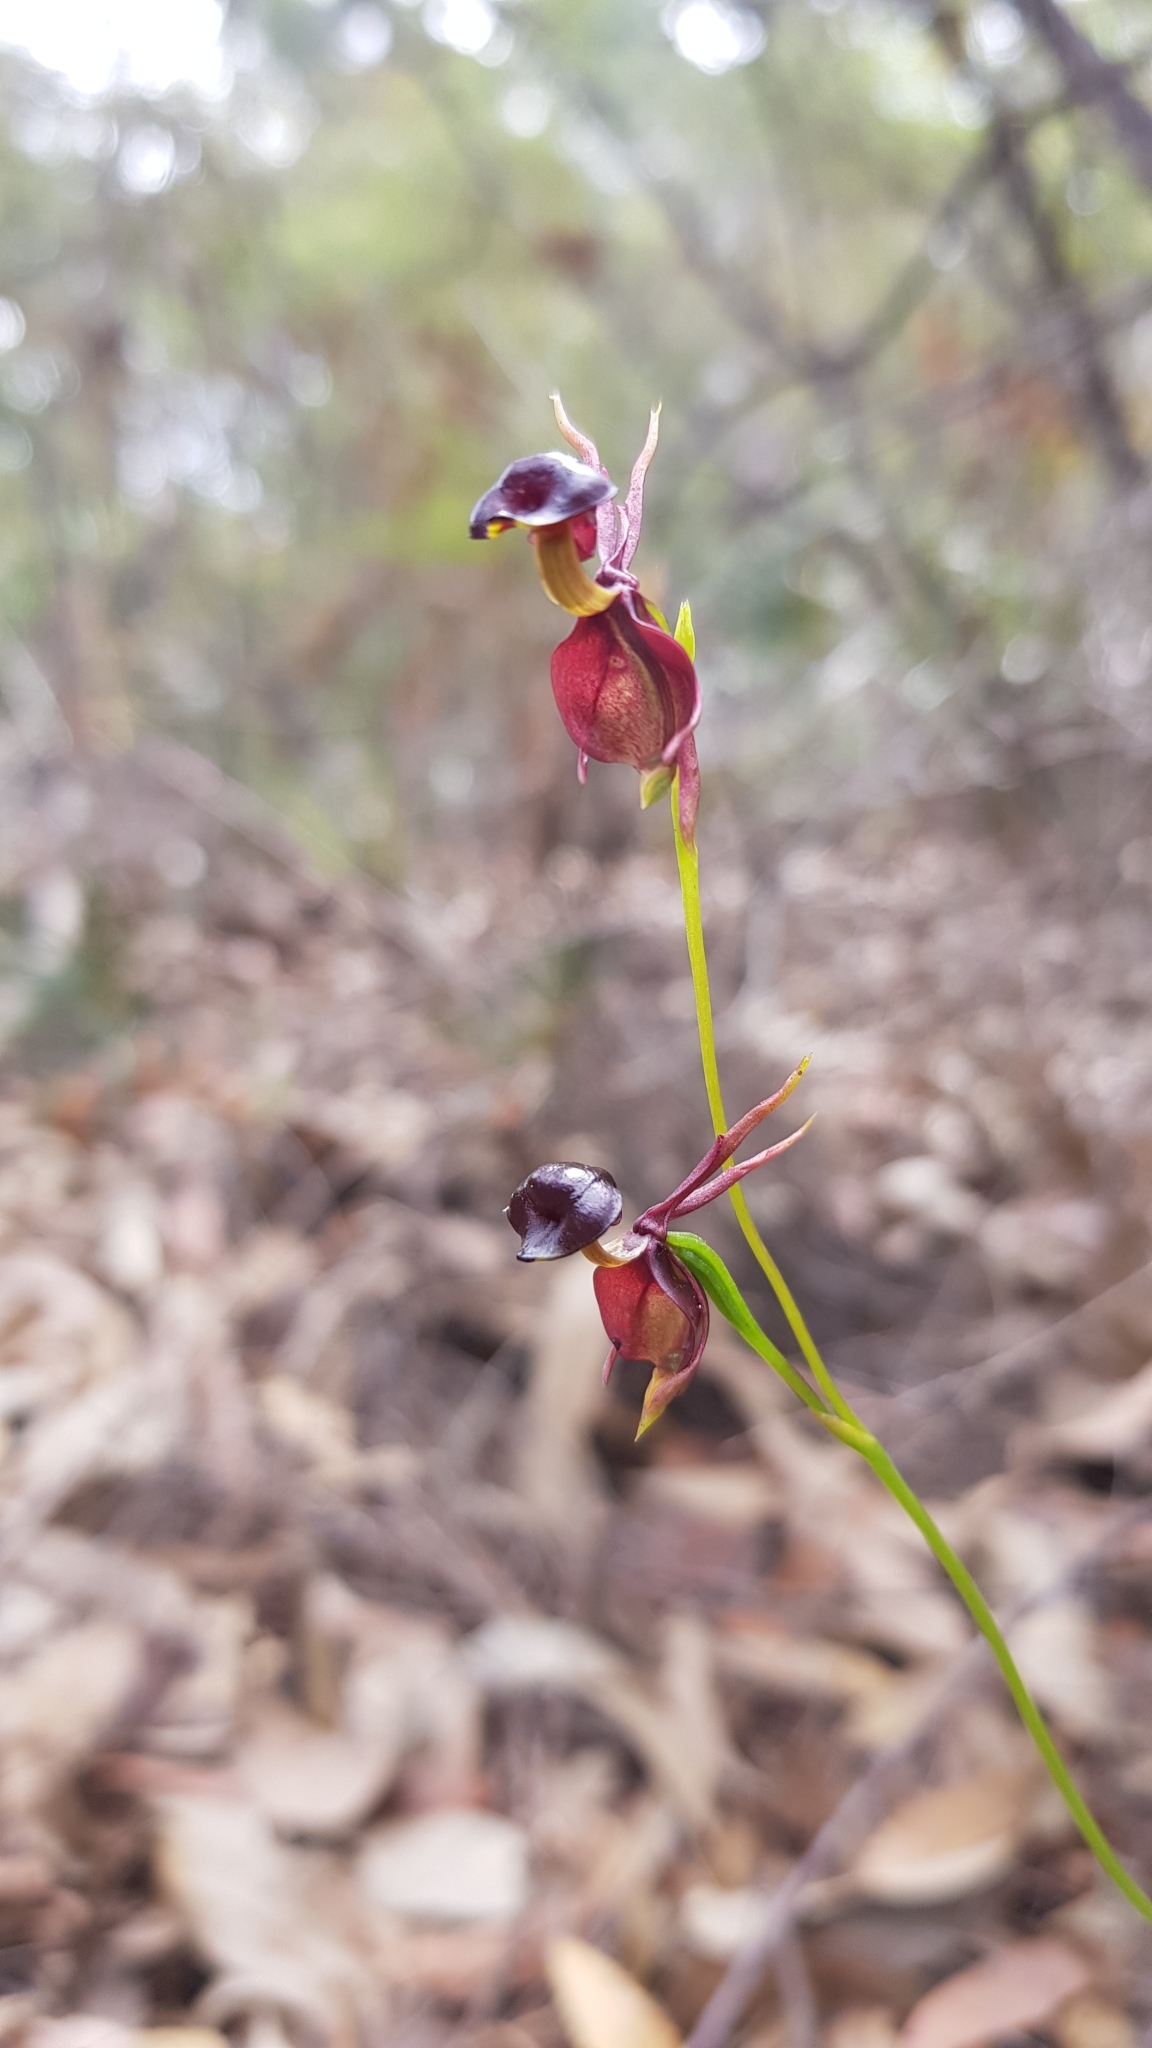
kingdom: Plantae
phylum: Tracheophyta
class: Liliopsida
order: Asparagales
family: Orchidaceae
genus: Caleana
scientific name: Caleana major
